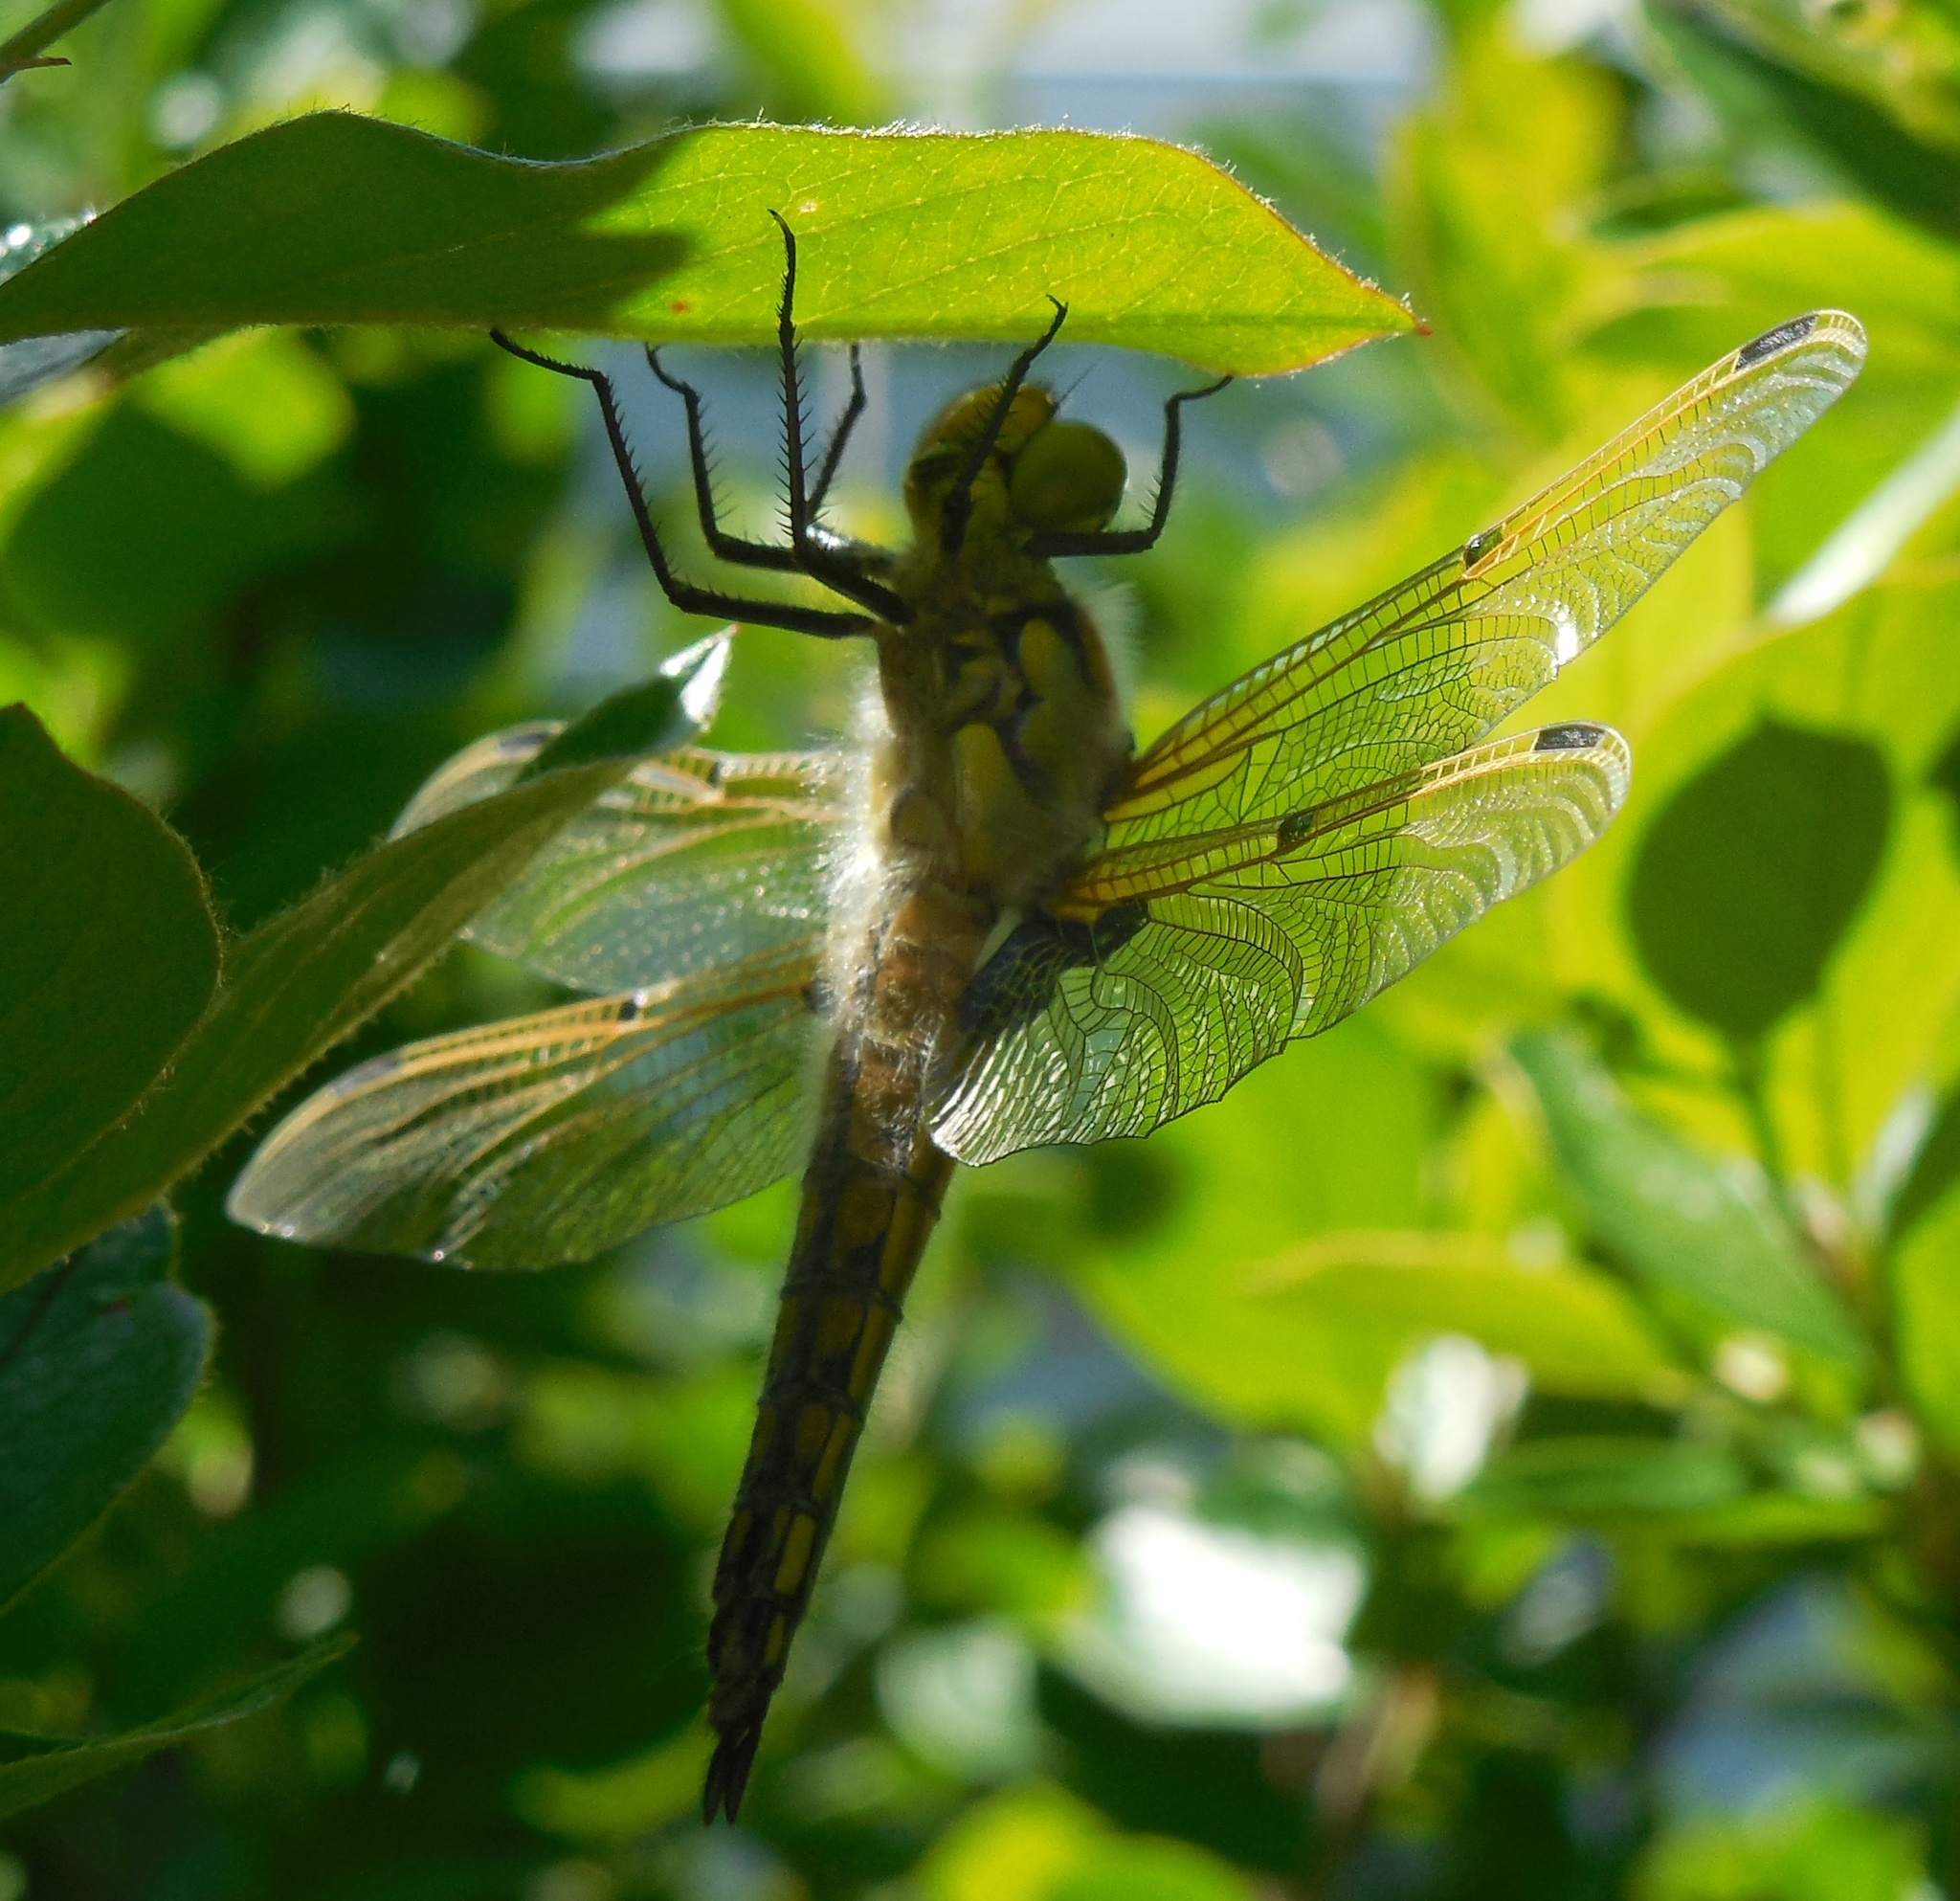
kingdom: Animalia
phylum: Arthropoda
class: Insecta
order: Odonata
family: Libellulidae
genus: Libellula
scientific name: Libellula quadrimaculata
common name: Four-spotted chaser
